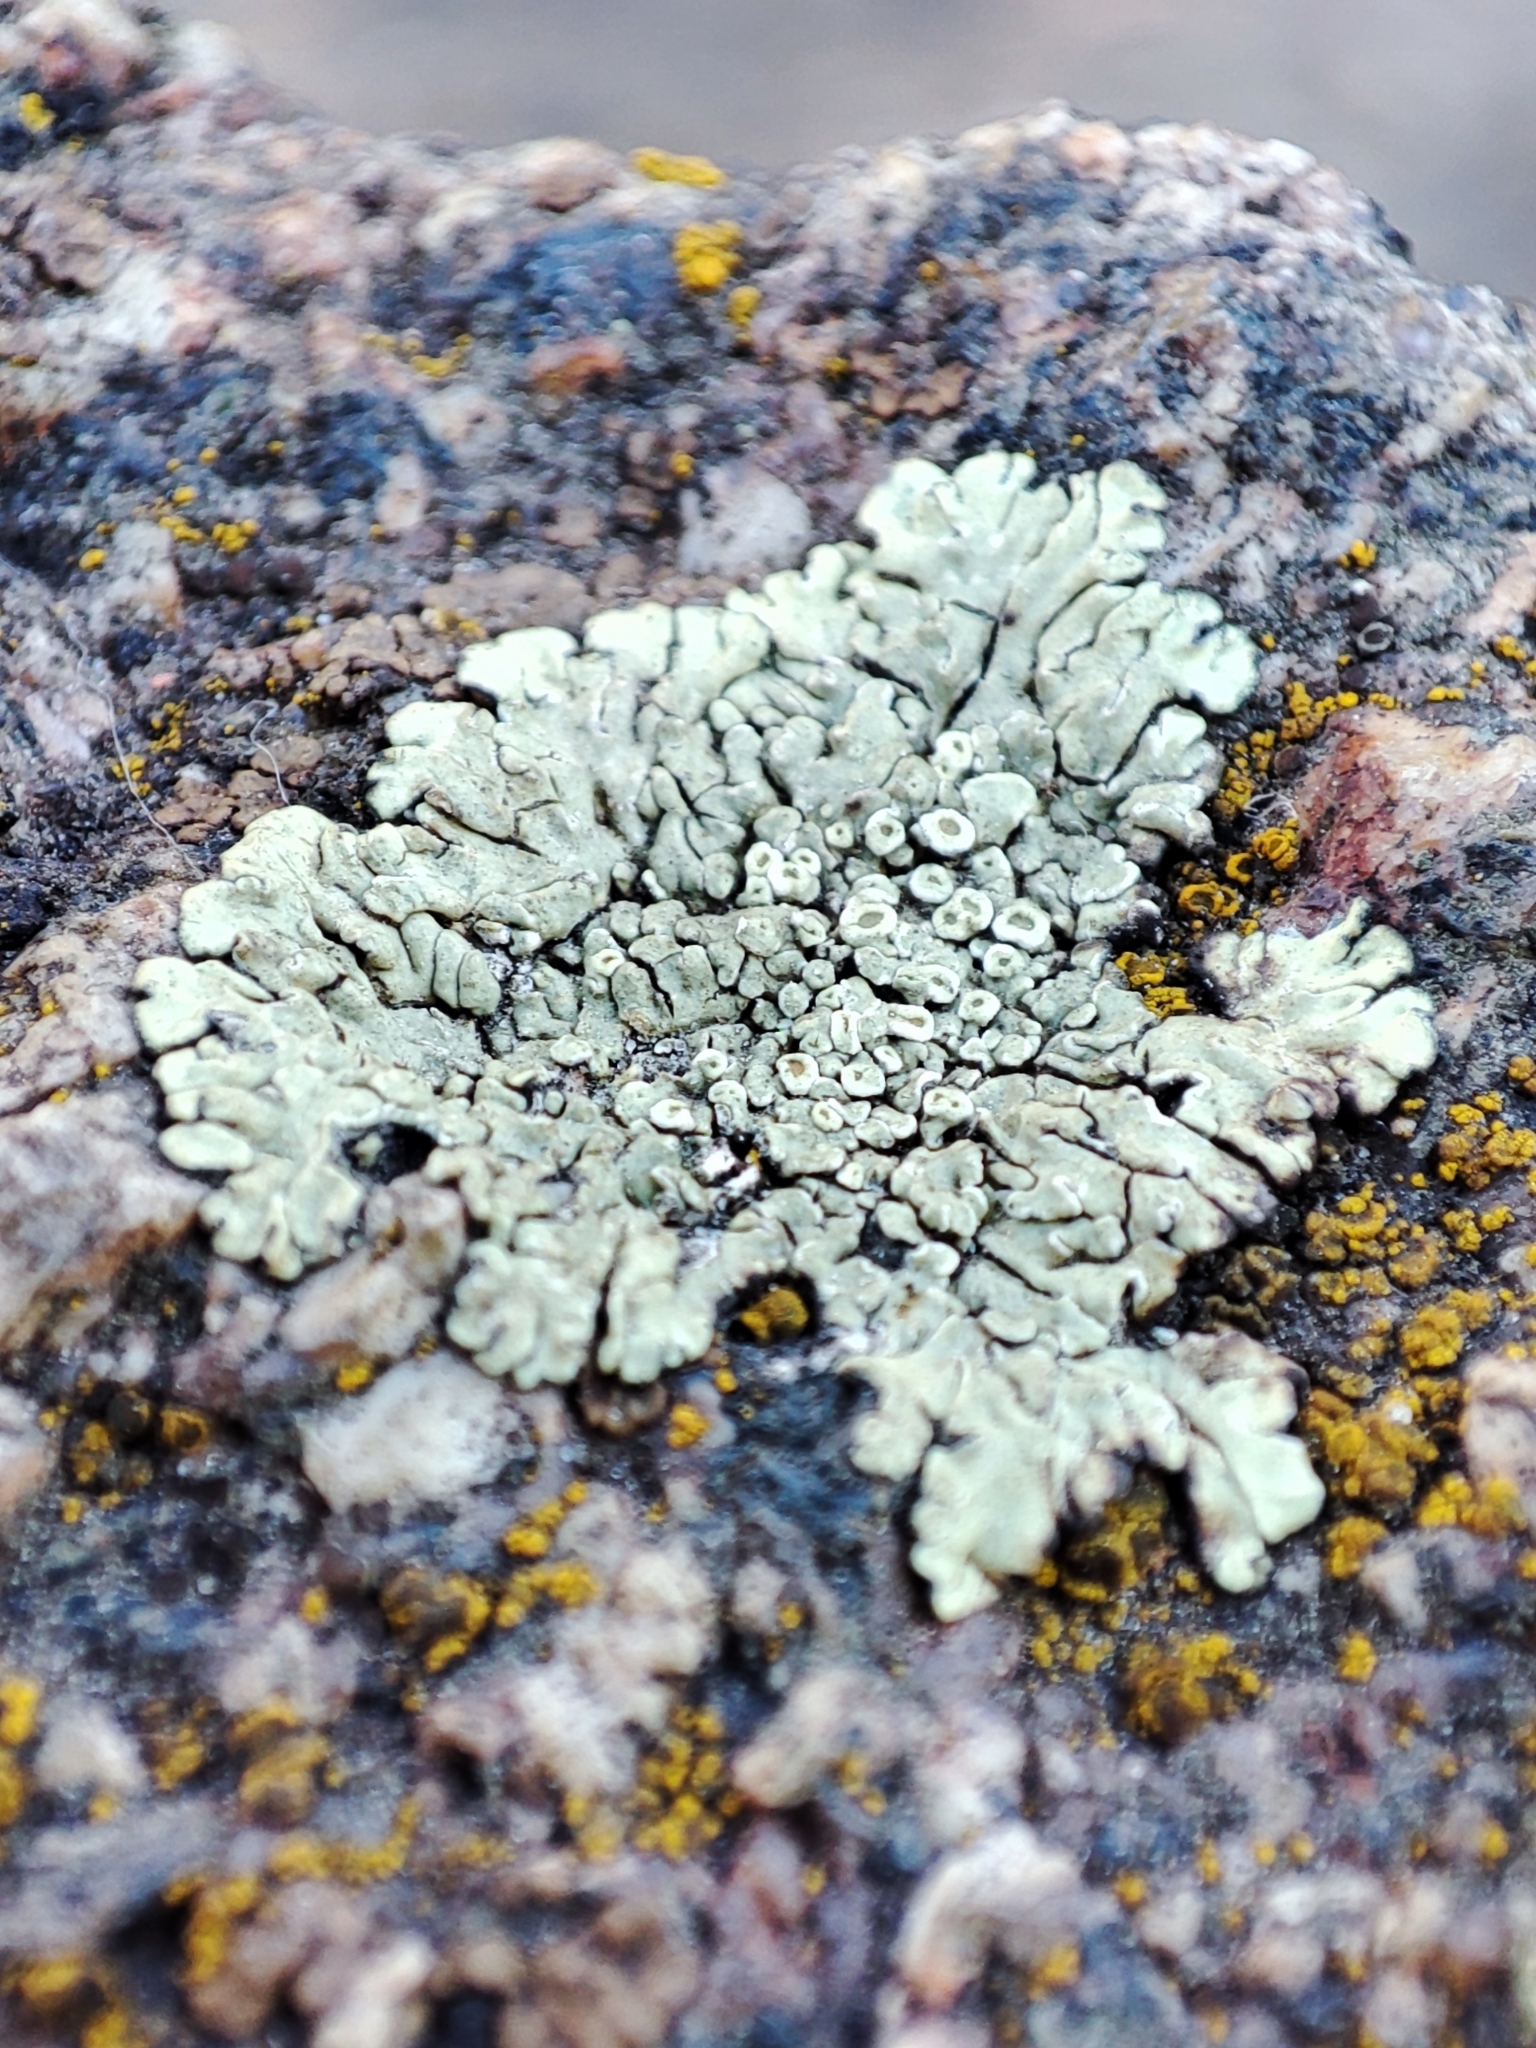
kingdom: Fungi
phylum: Ascomycota
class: Lecanoromycetes
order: Lecanorales
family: Lecanoraceae
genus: Protoparmeliopsis
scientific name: Protoparmeliopsis muralis
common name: Stonewall rim lichen
